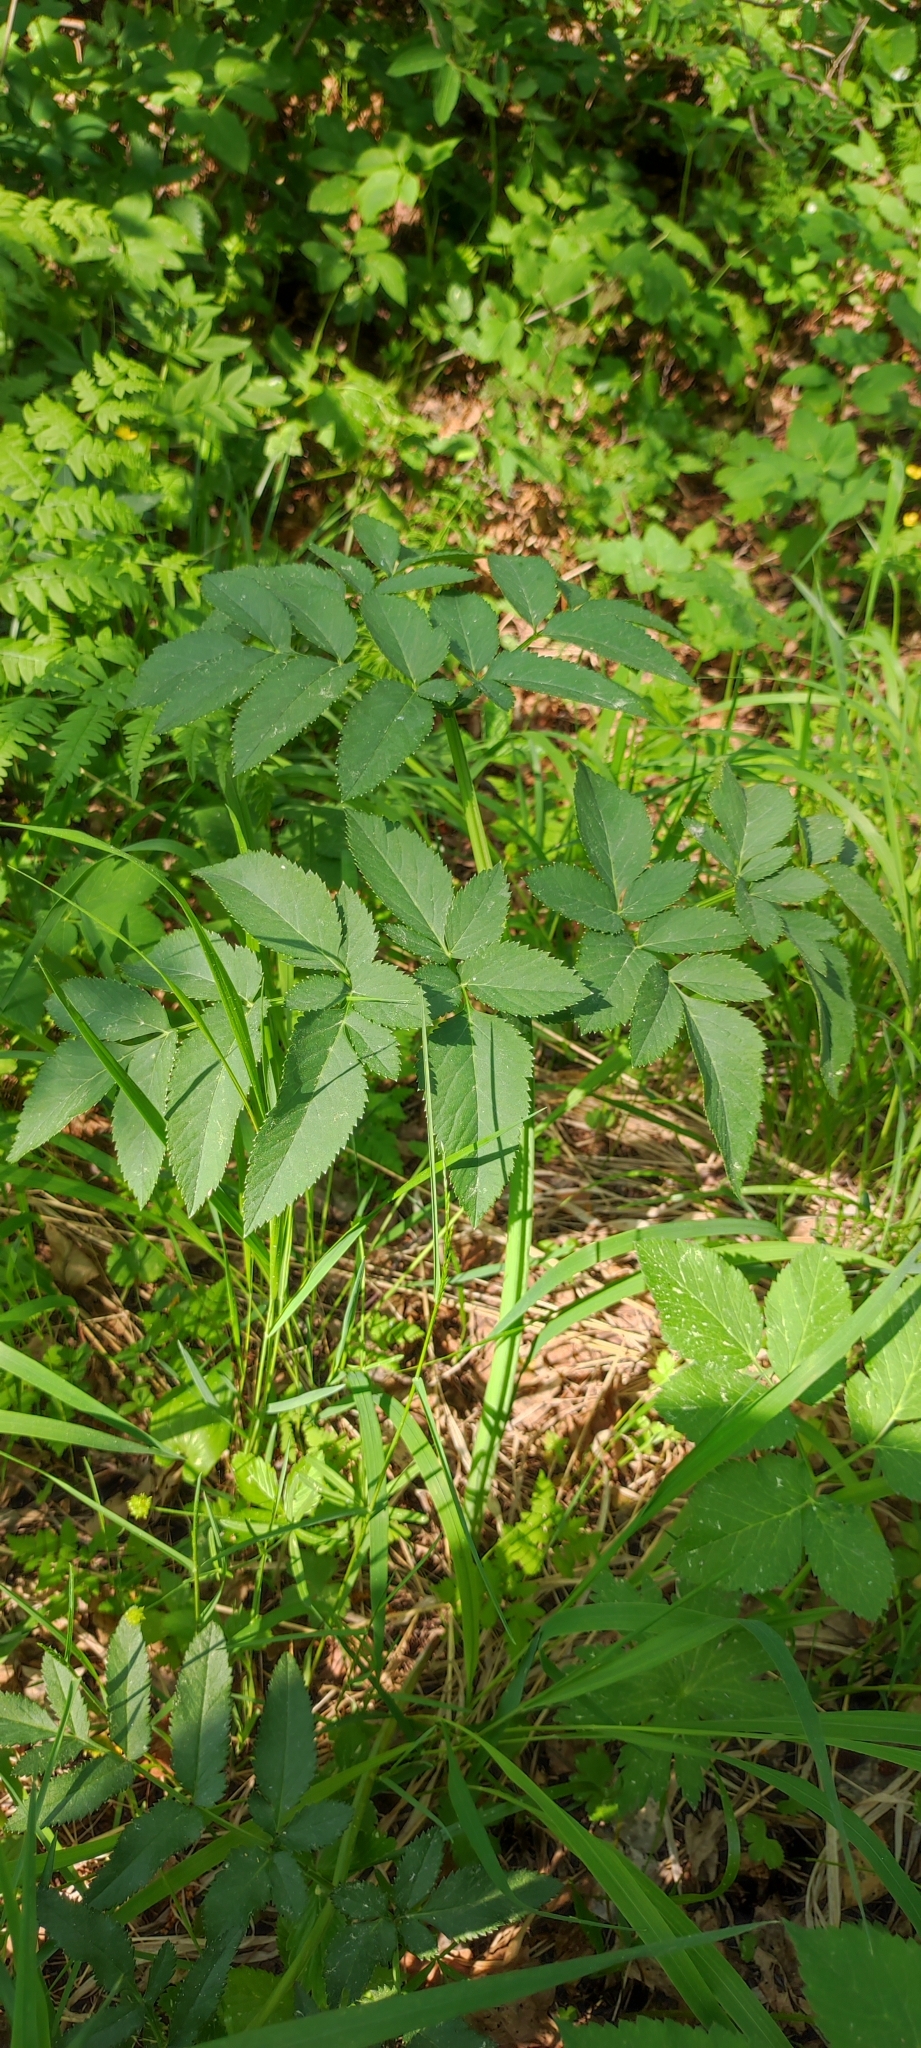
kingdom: Plantae
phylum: Tracheophyta
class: Magnoliopsida
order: Apiales
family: Apiaceae
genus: Angelica
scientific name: Angelica sylvestris
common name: Wild angelica
